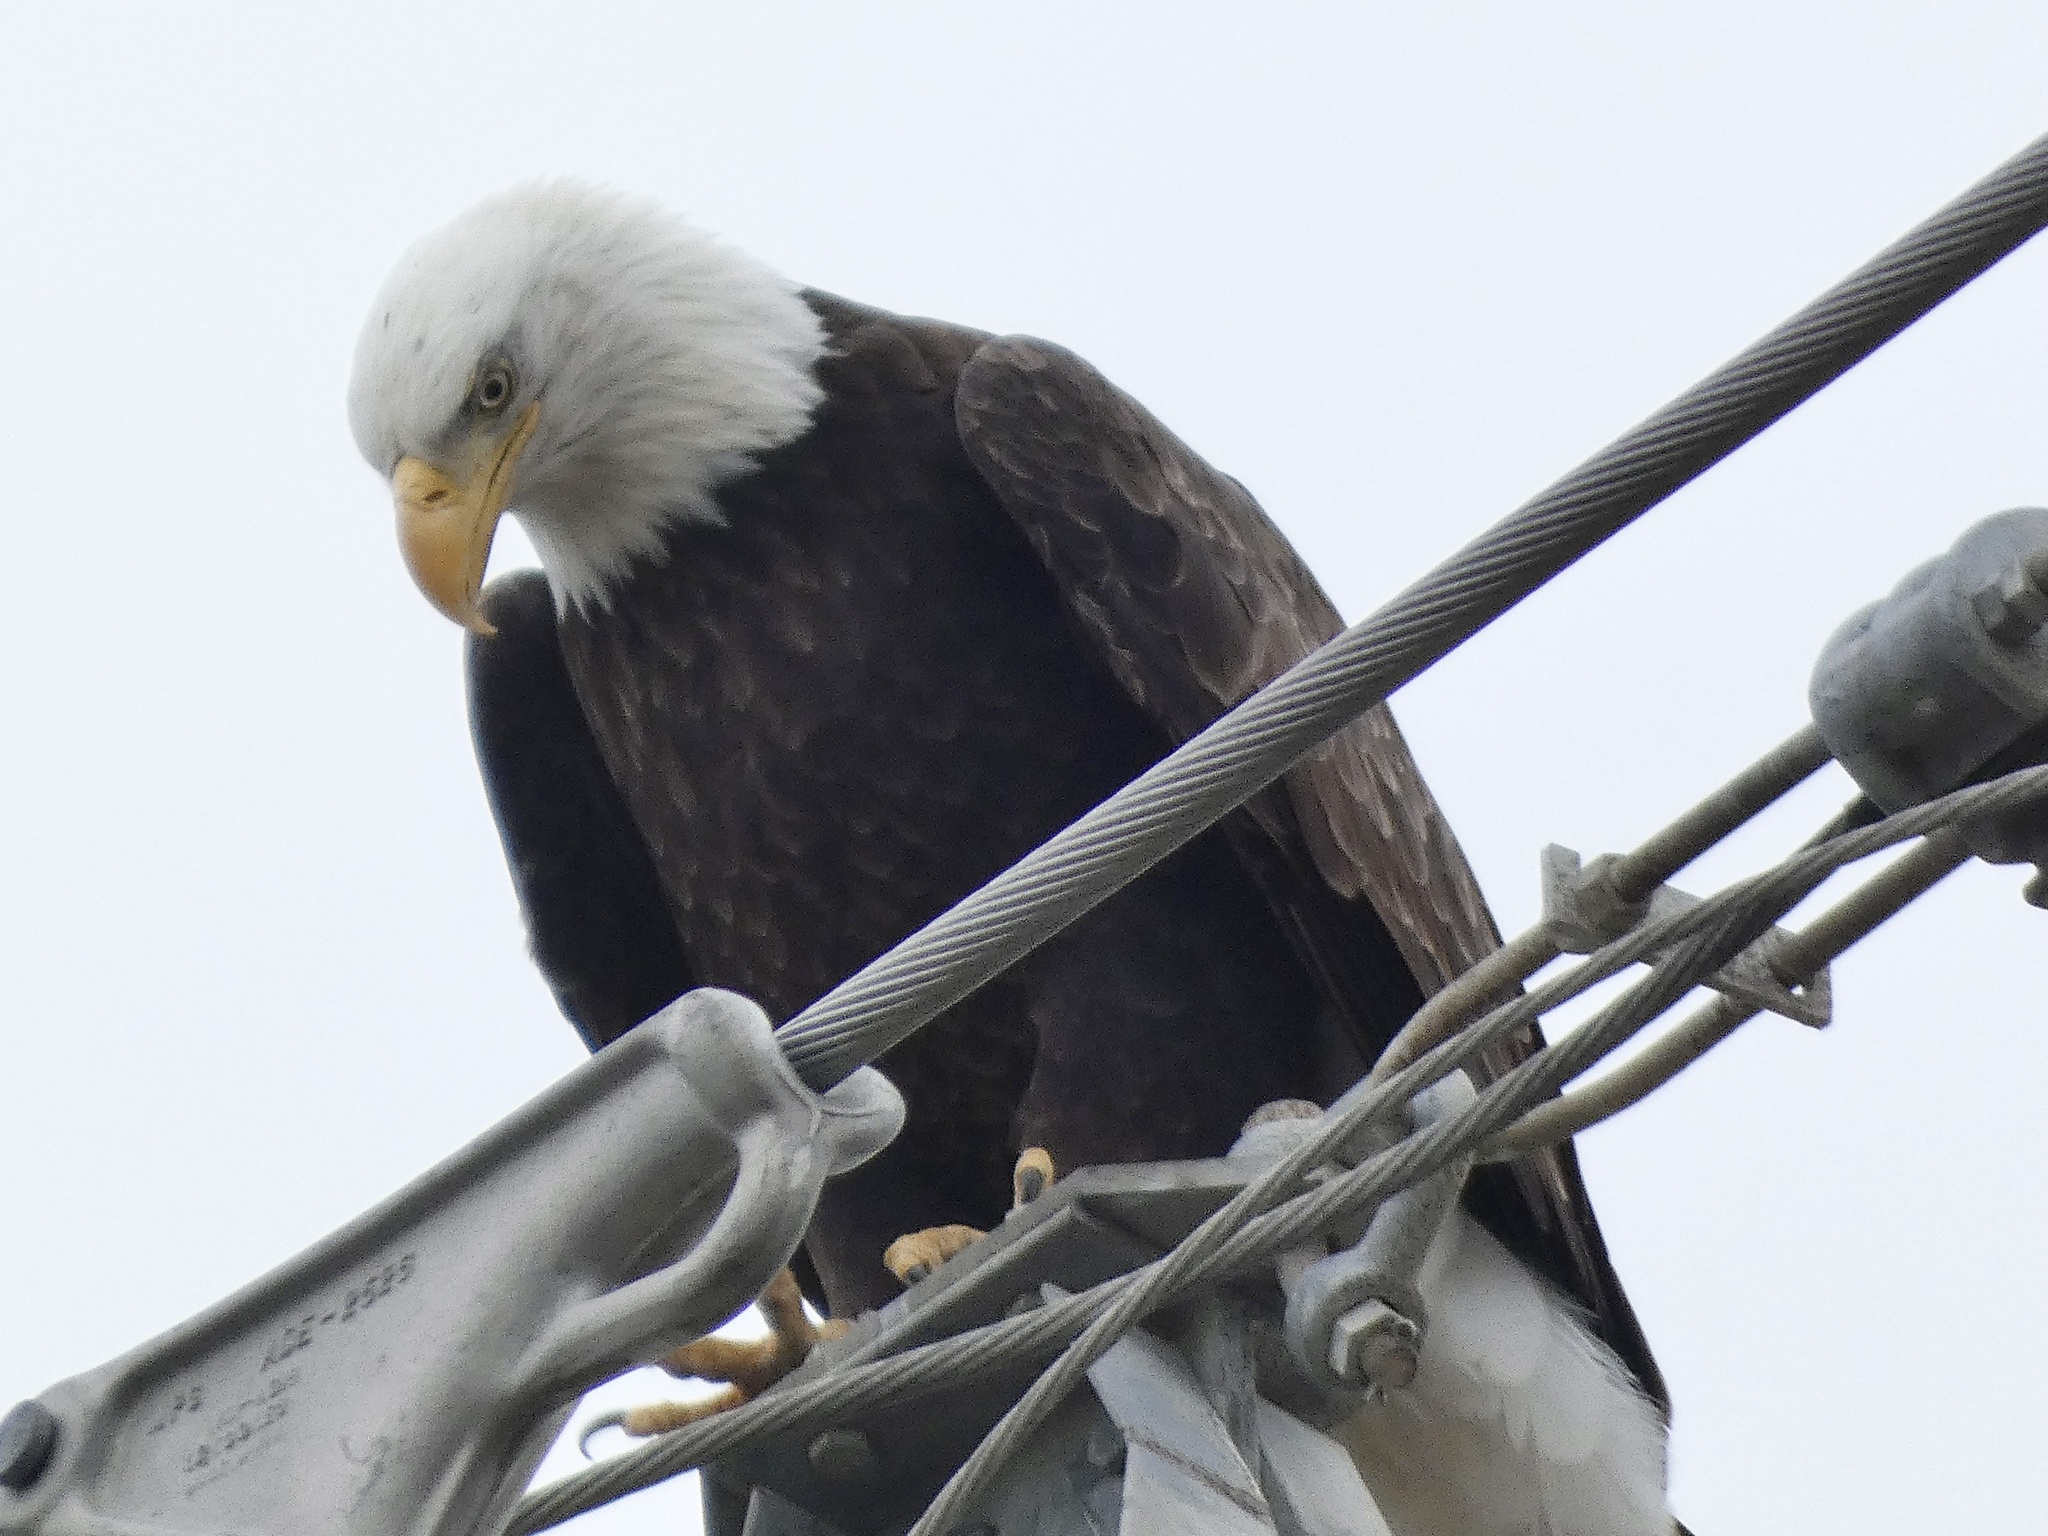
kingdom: Animalia
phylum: Chordata
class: Aves
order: Accipitriformes
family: Accipitridae
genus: Haliaeetus
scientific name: Haliaeetus leucocephalus
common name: Bald eagle
